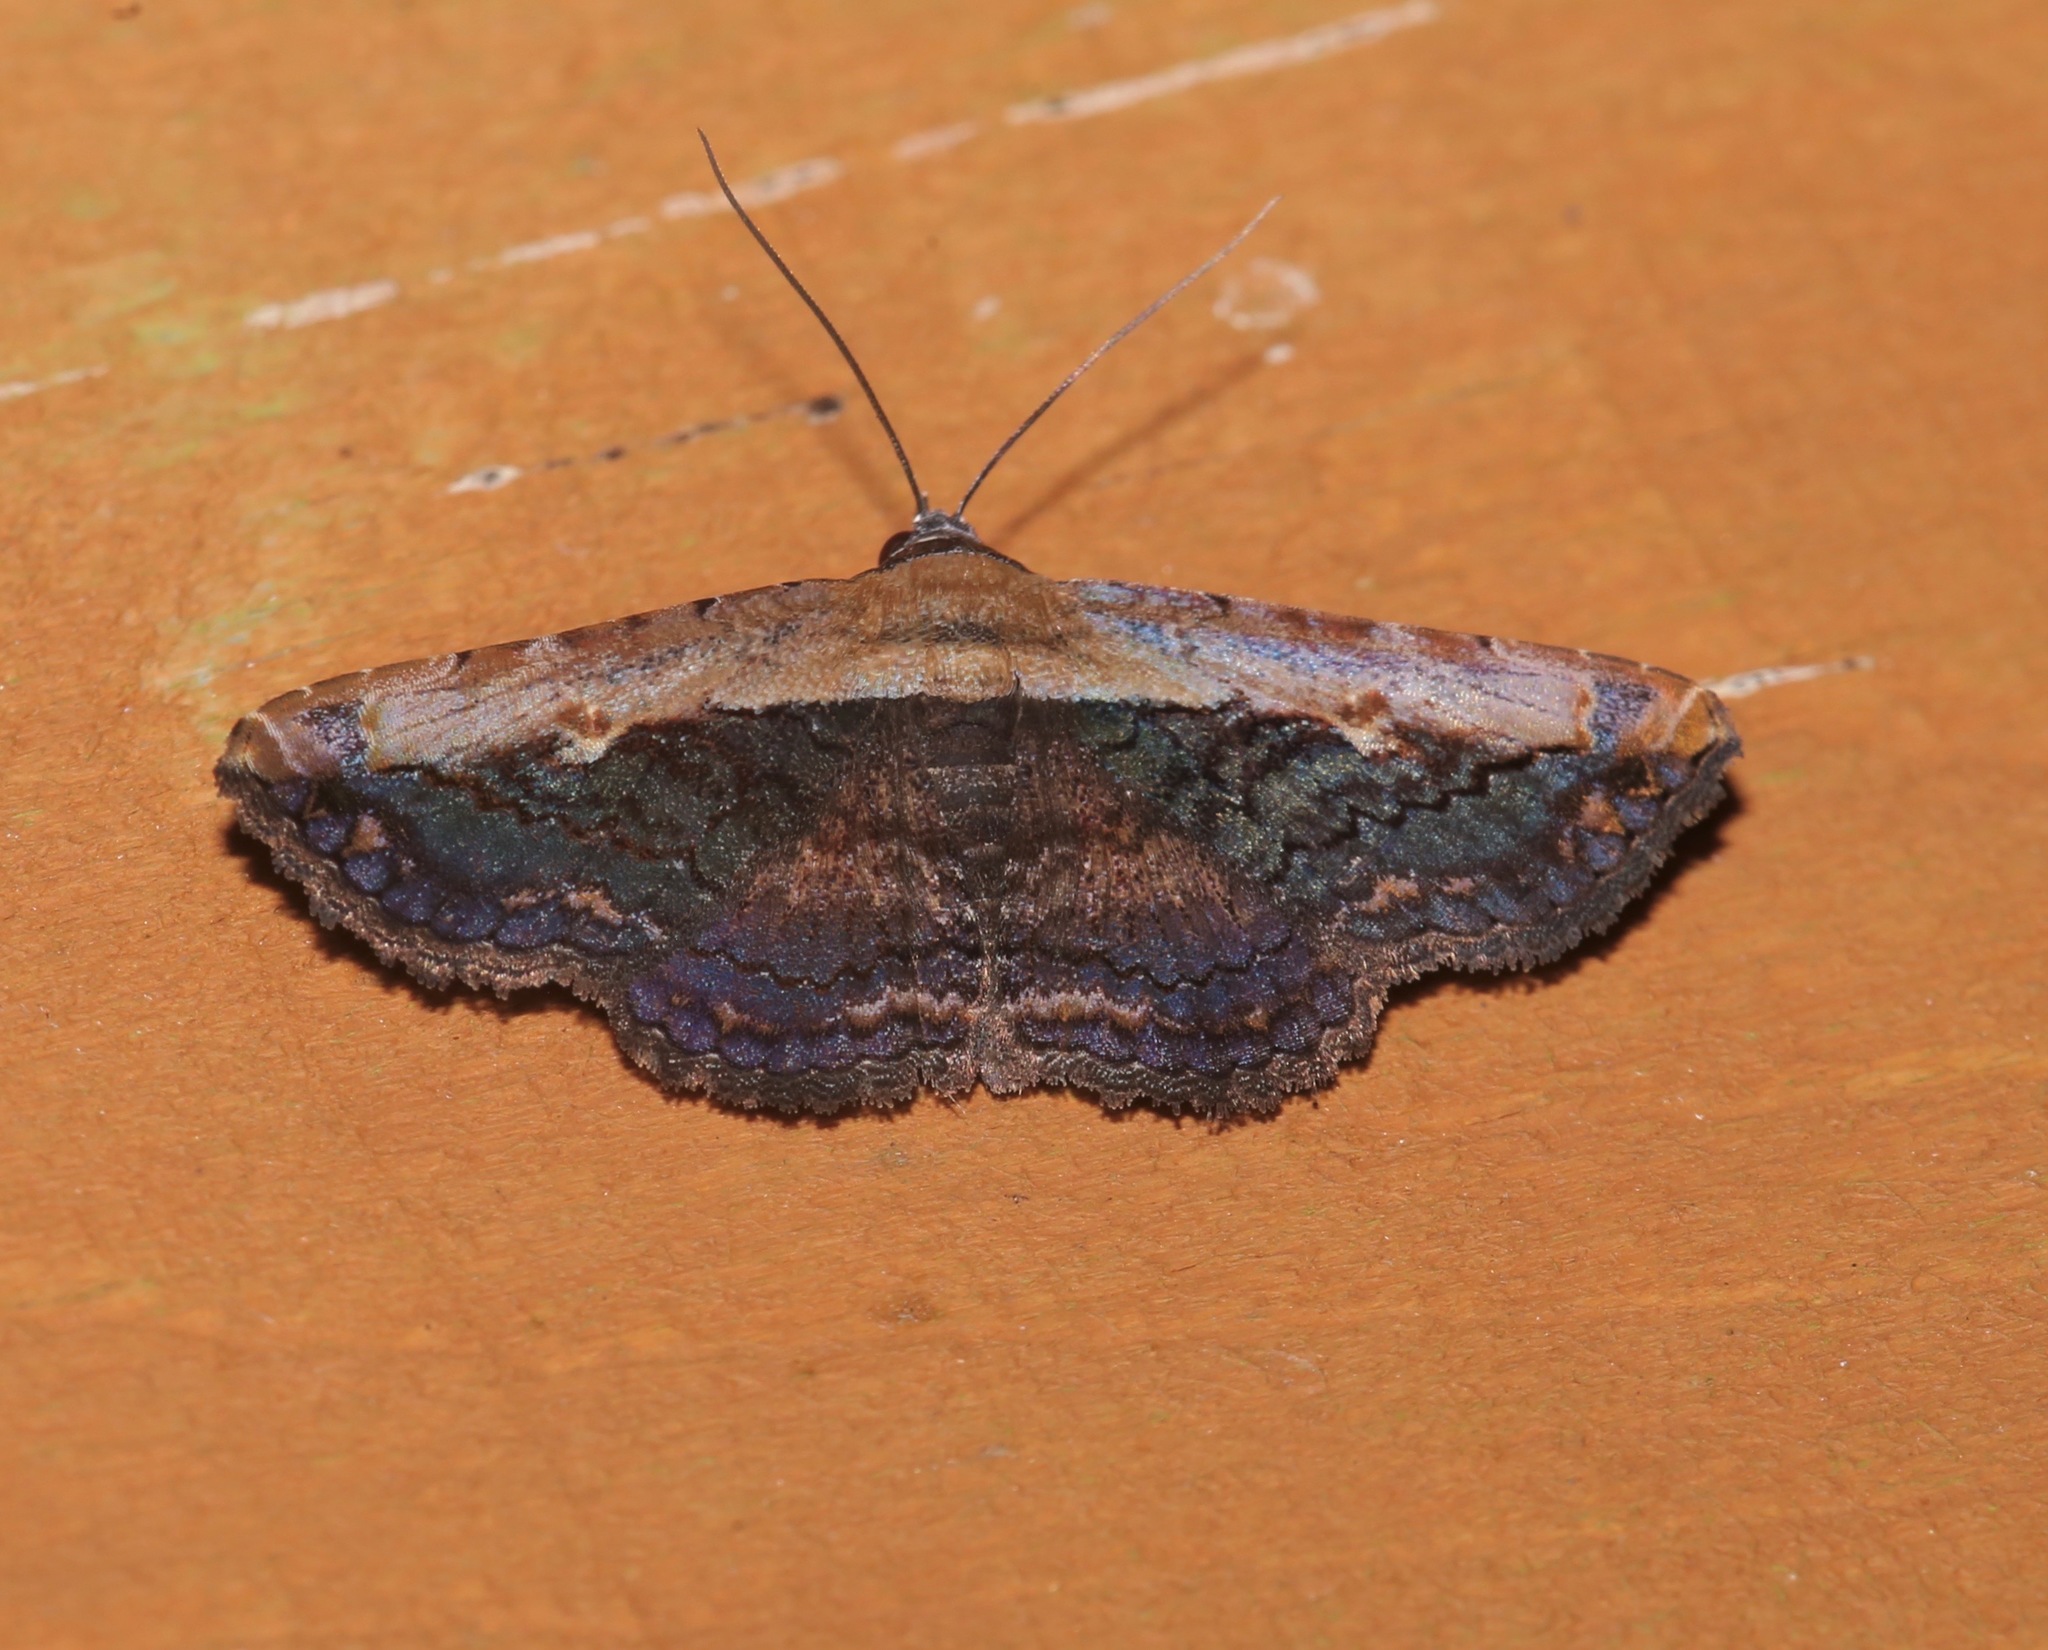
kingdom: Animalia
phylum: Arthropoda
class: Insecta
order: Lepidoptera
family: Erebidae
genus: Selenisa
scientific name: Selenisa sueroides
